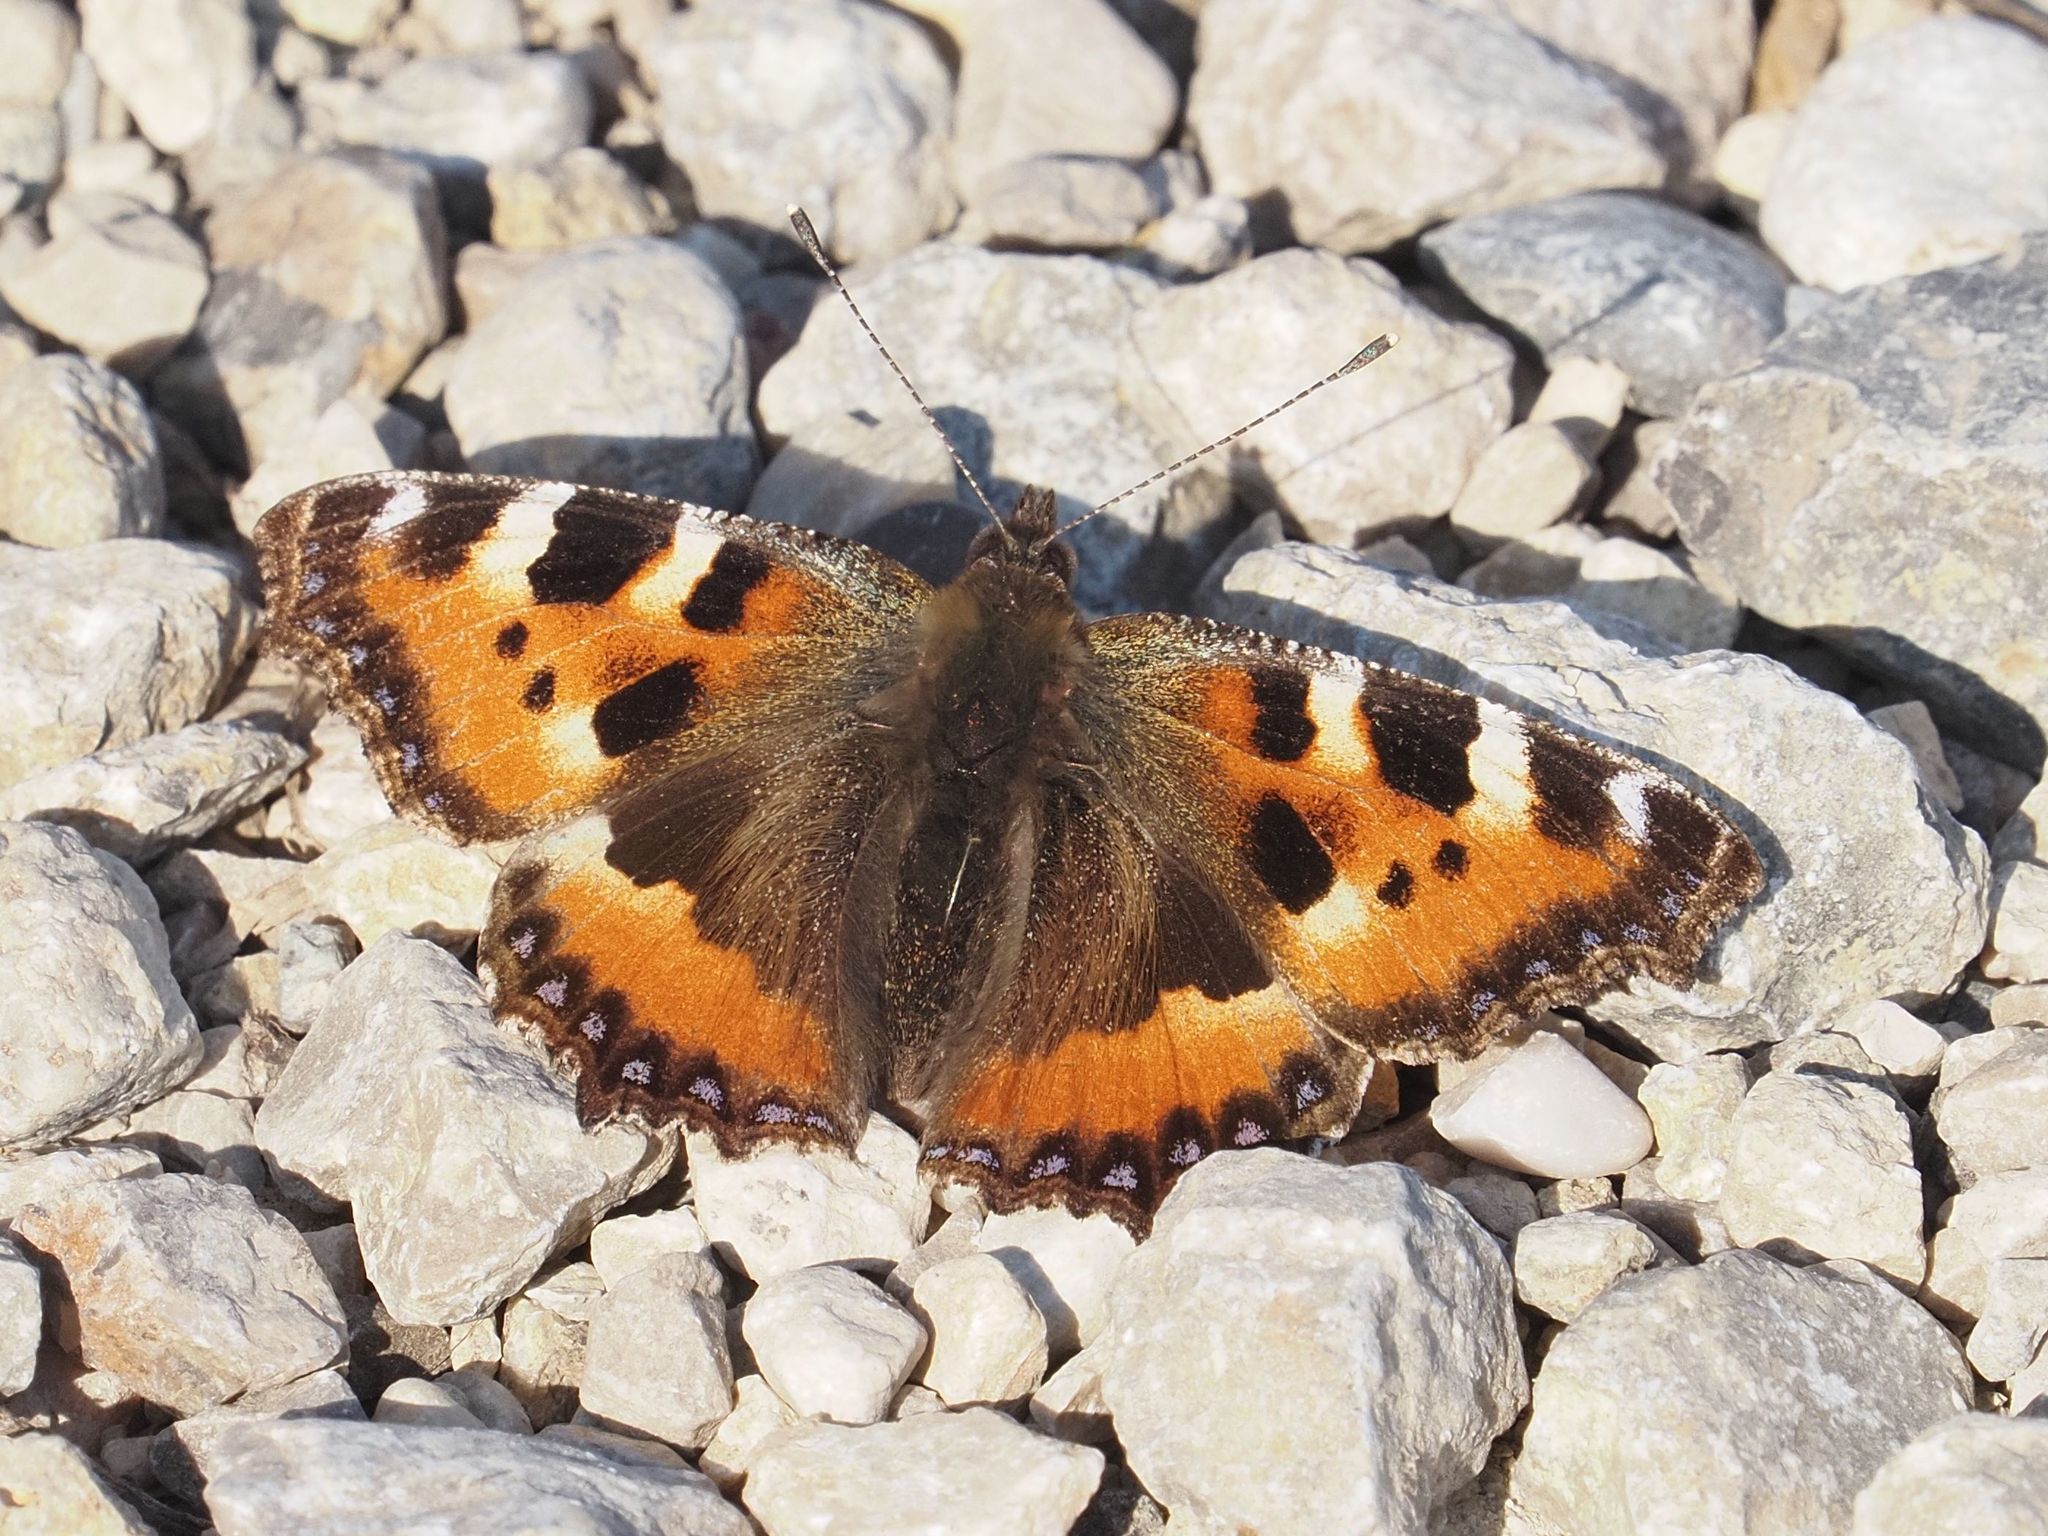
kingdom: Animalia
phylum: Arthropoda
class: Insecta
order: Lepidoptera
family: Nymphalidae
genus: Aglais
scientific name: Aglais urticae
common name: Small tortoiseshell
